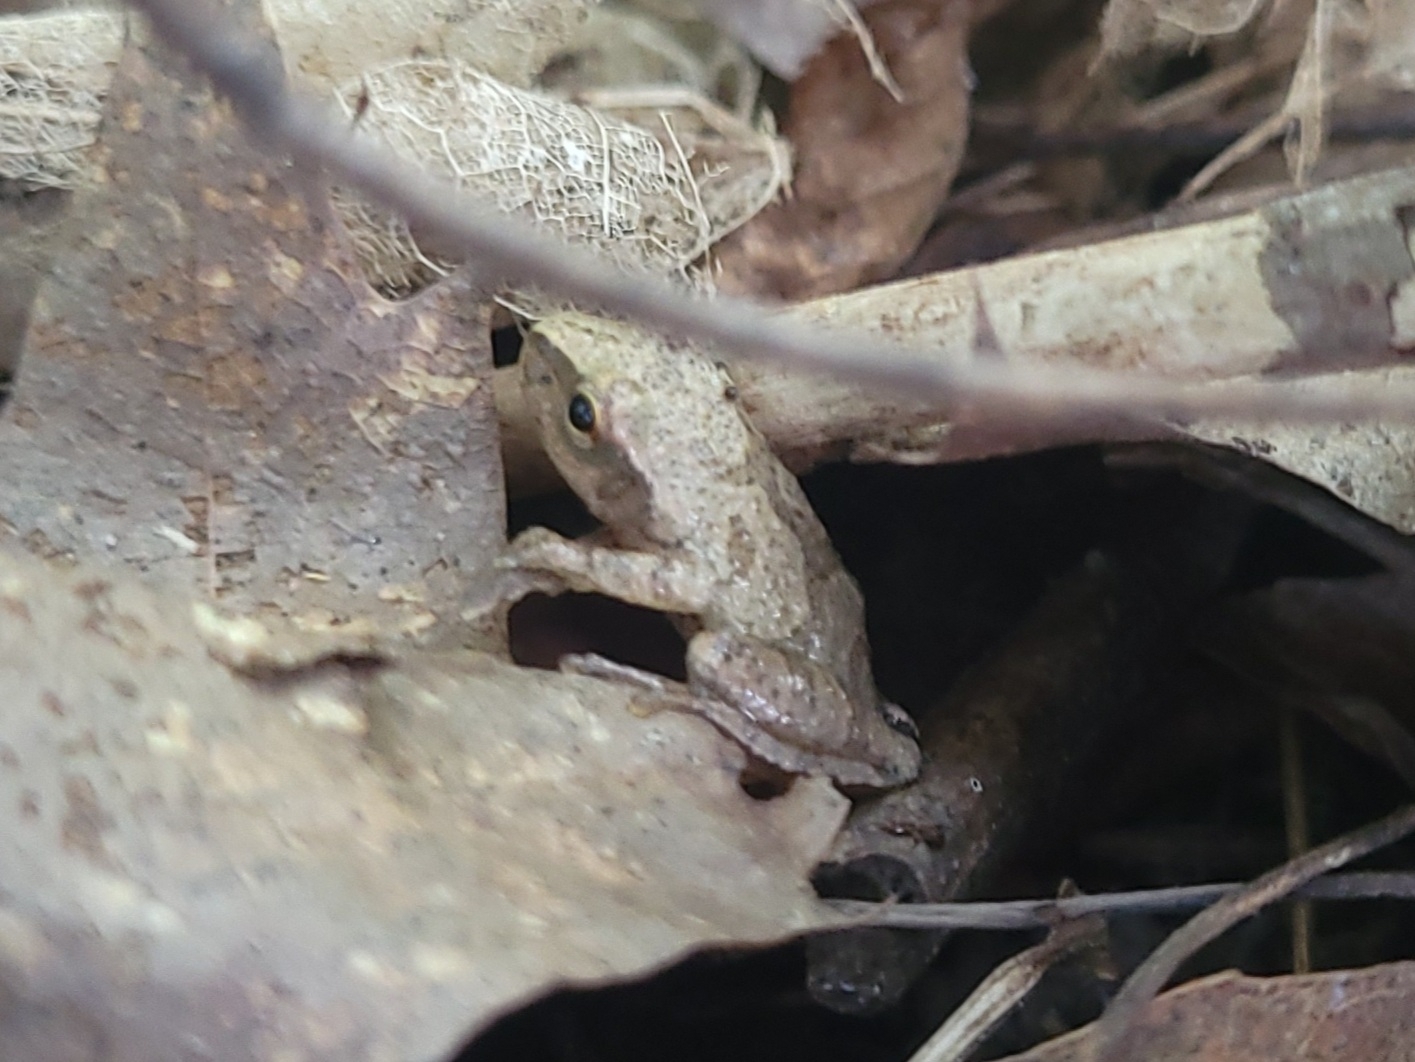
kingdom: Animalia
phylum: Chordata
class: Amphibia
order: Anura
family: Hylidae
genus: Pseudacris
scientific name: Pseudacris crucifer
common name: Spring peeper
